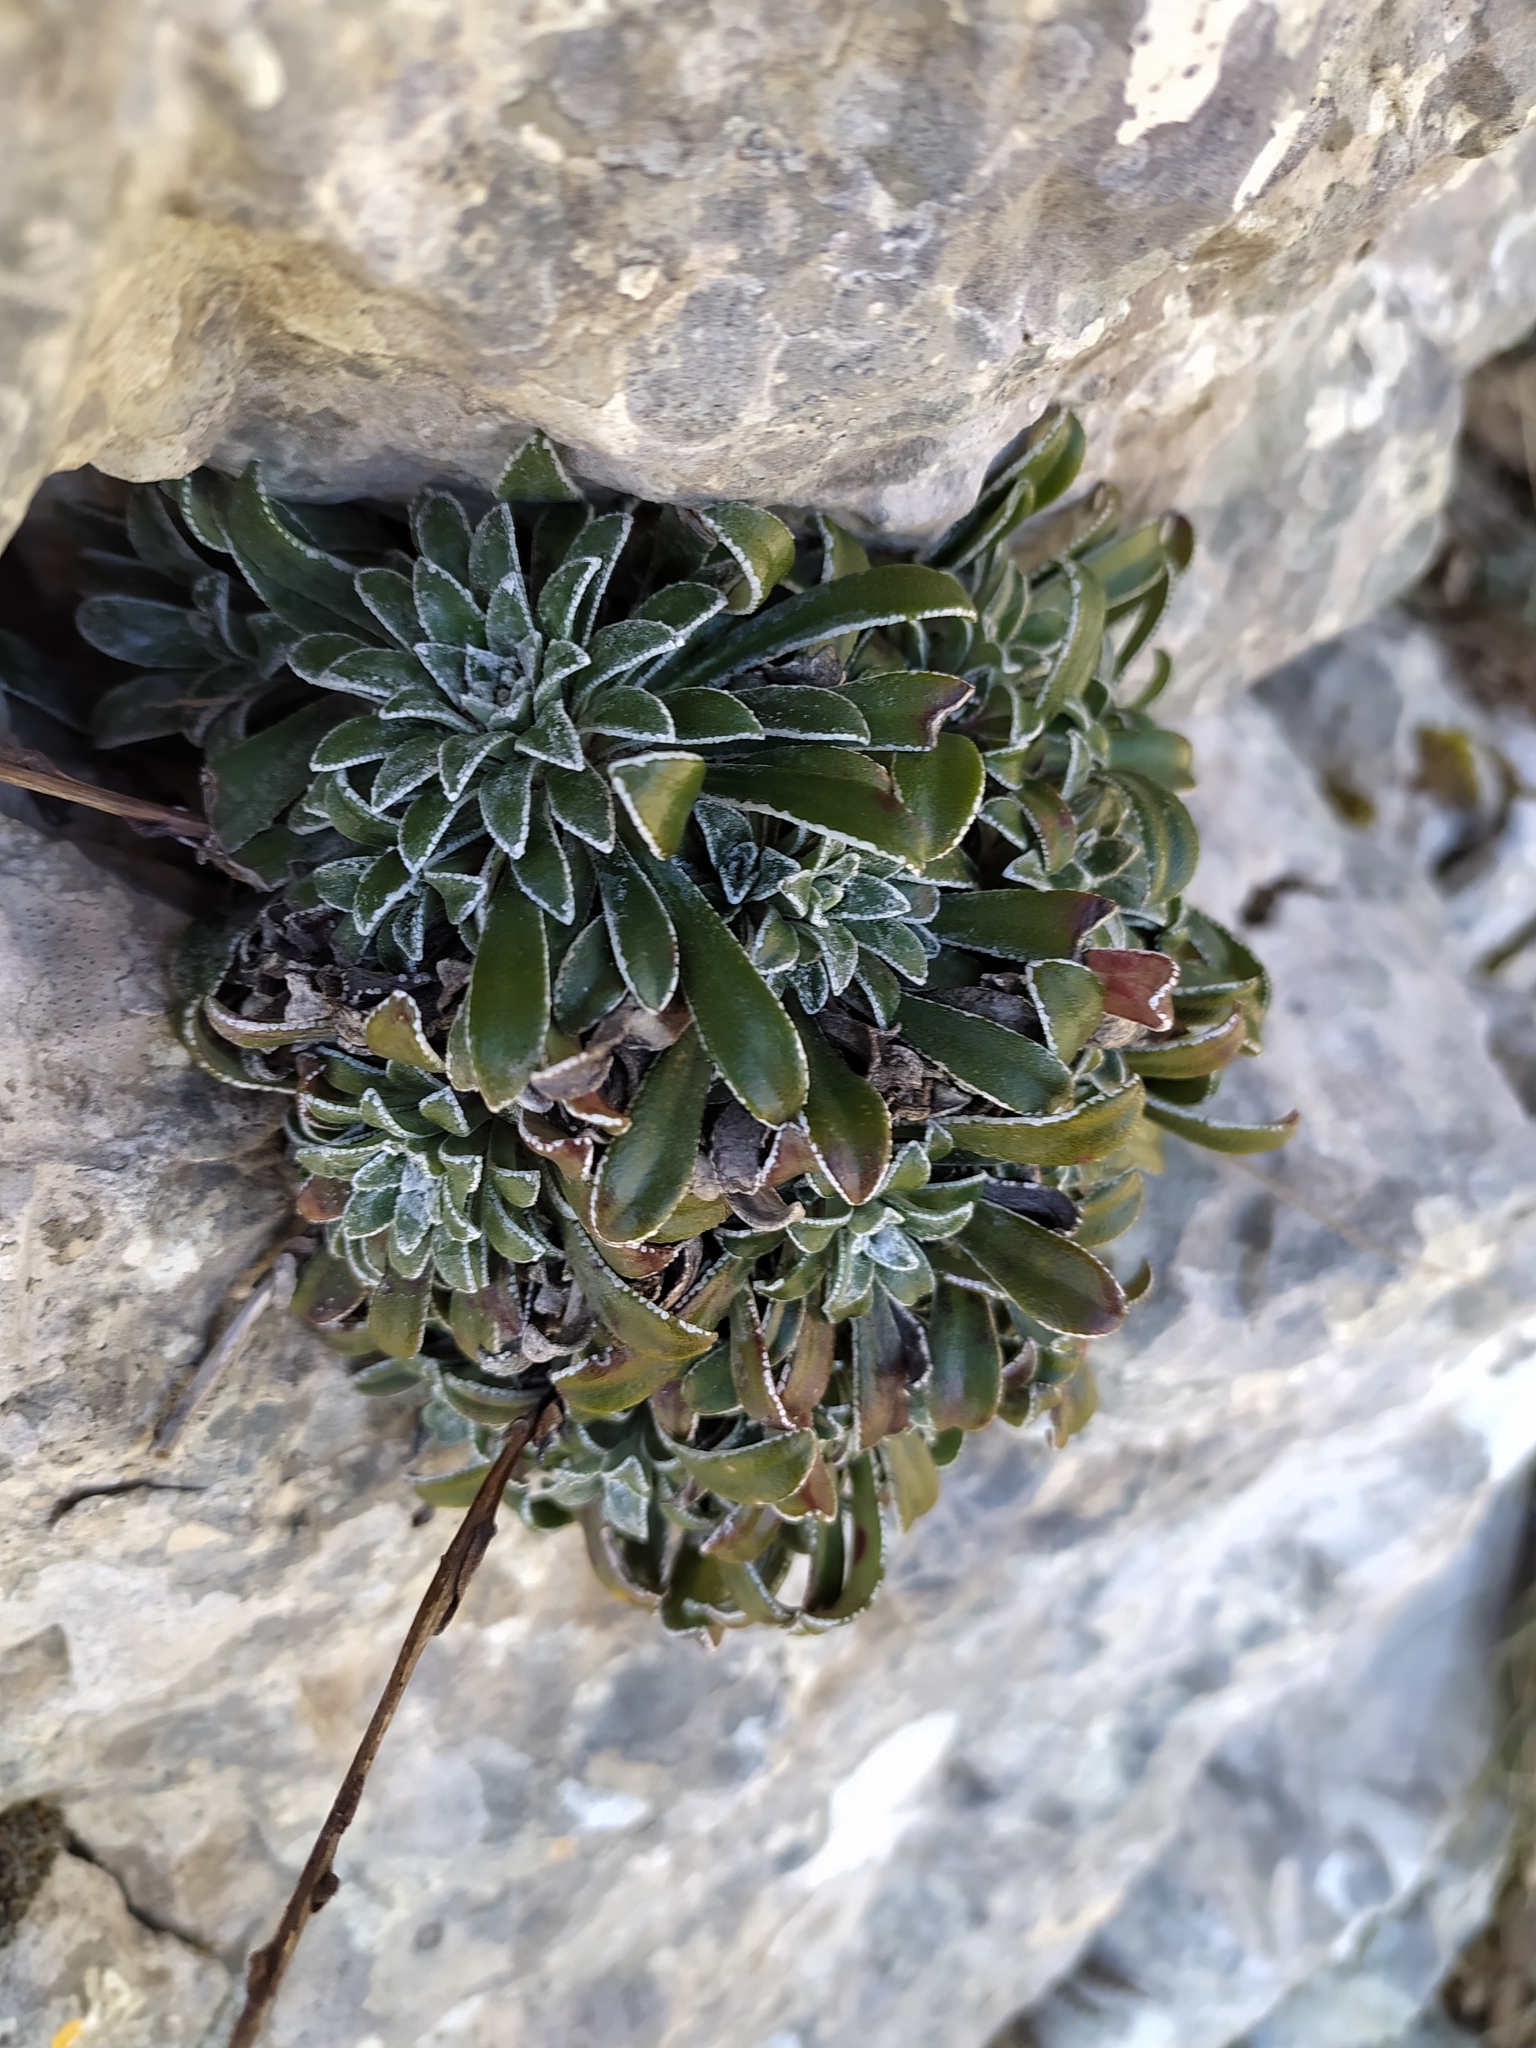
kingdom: Plantae
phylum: Tracheophyta
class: Magnoliopsida
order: Saxifragales
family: Saxifragaceae
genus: Saxifraga
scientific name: Saxifraga callosa
